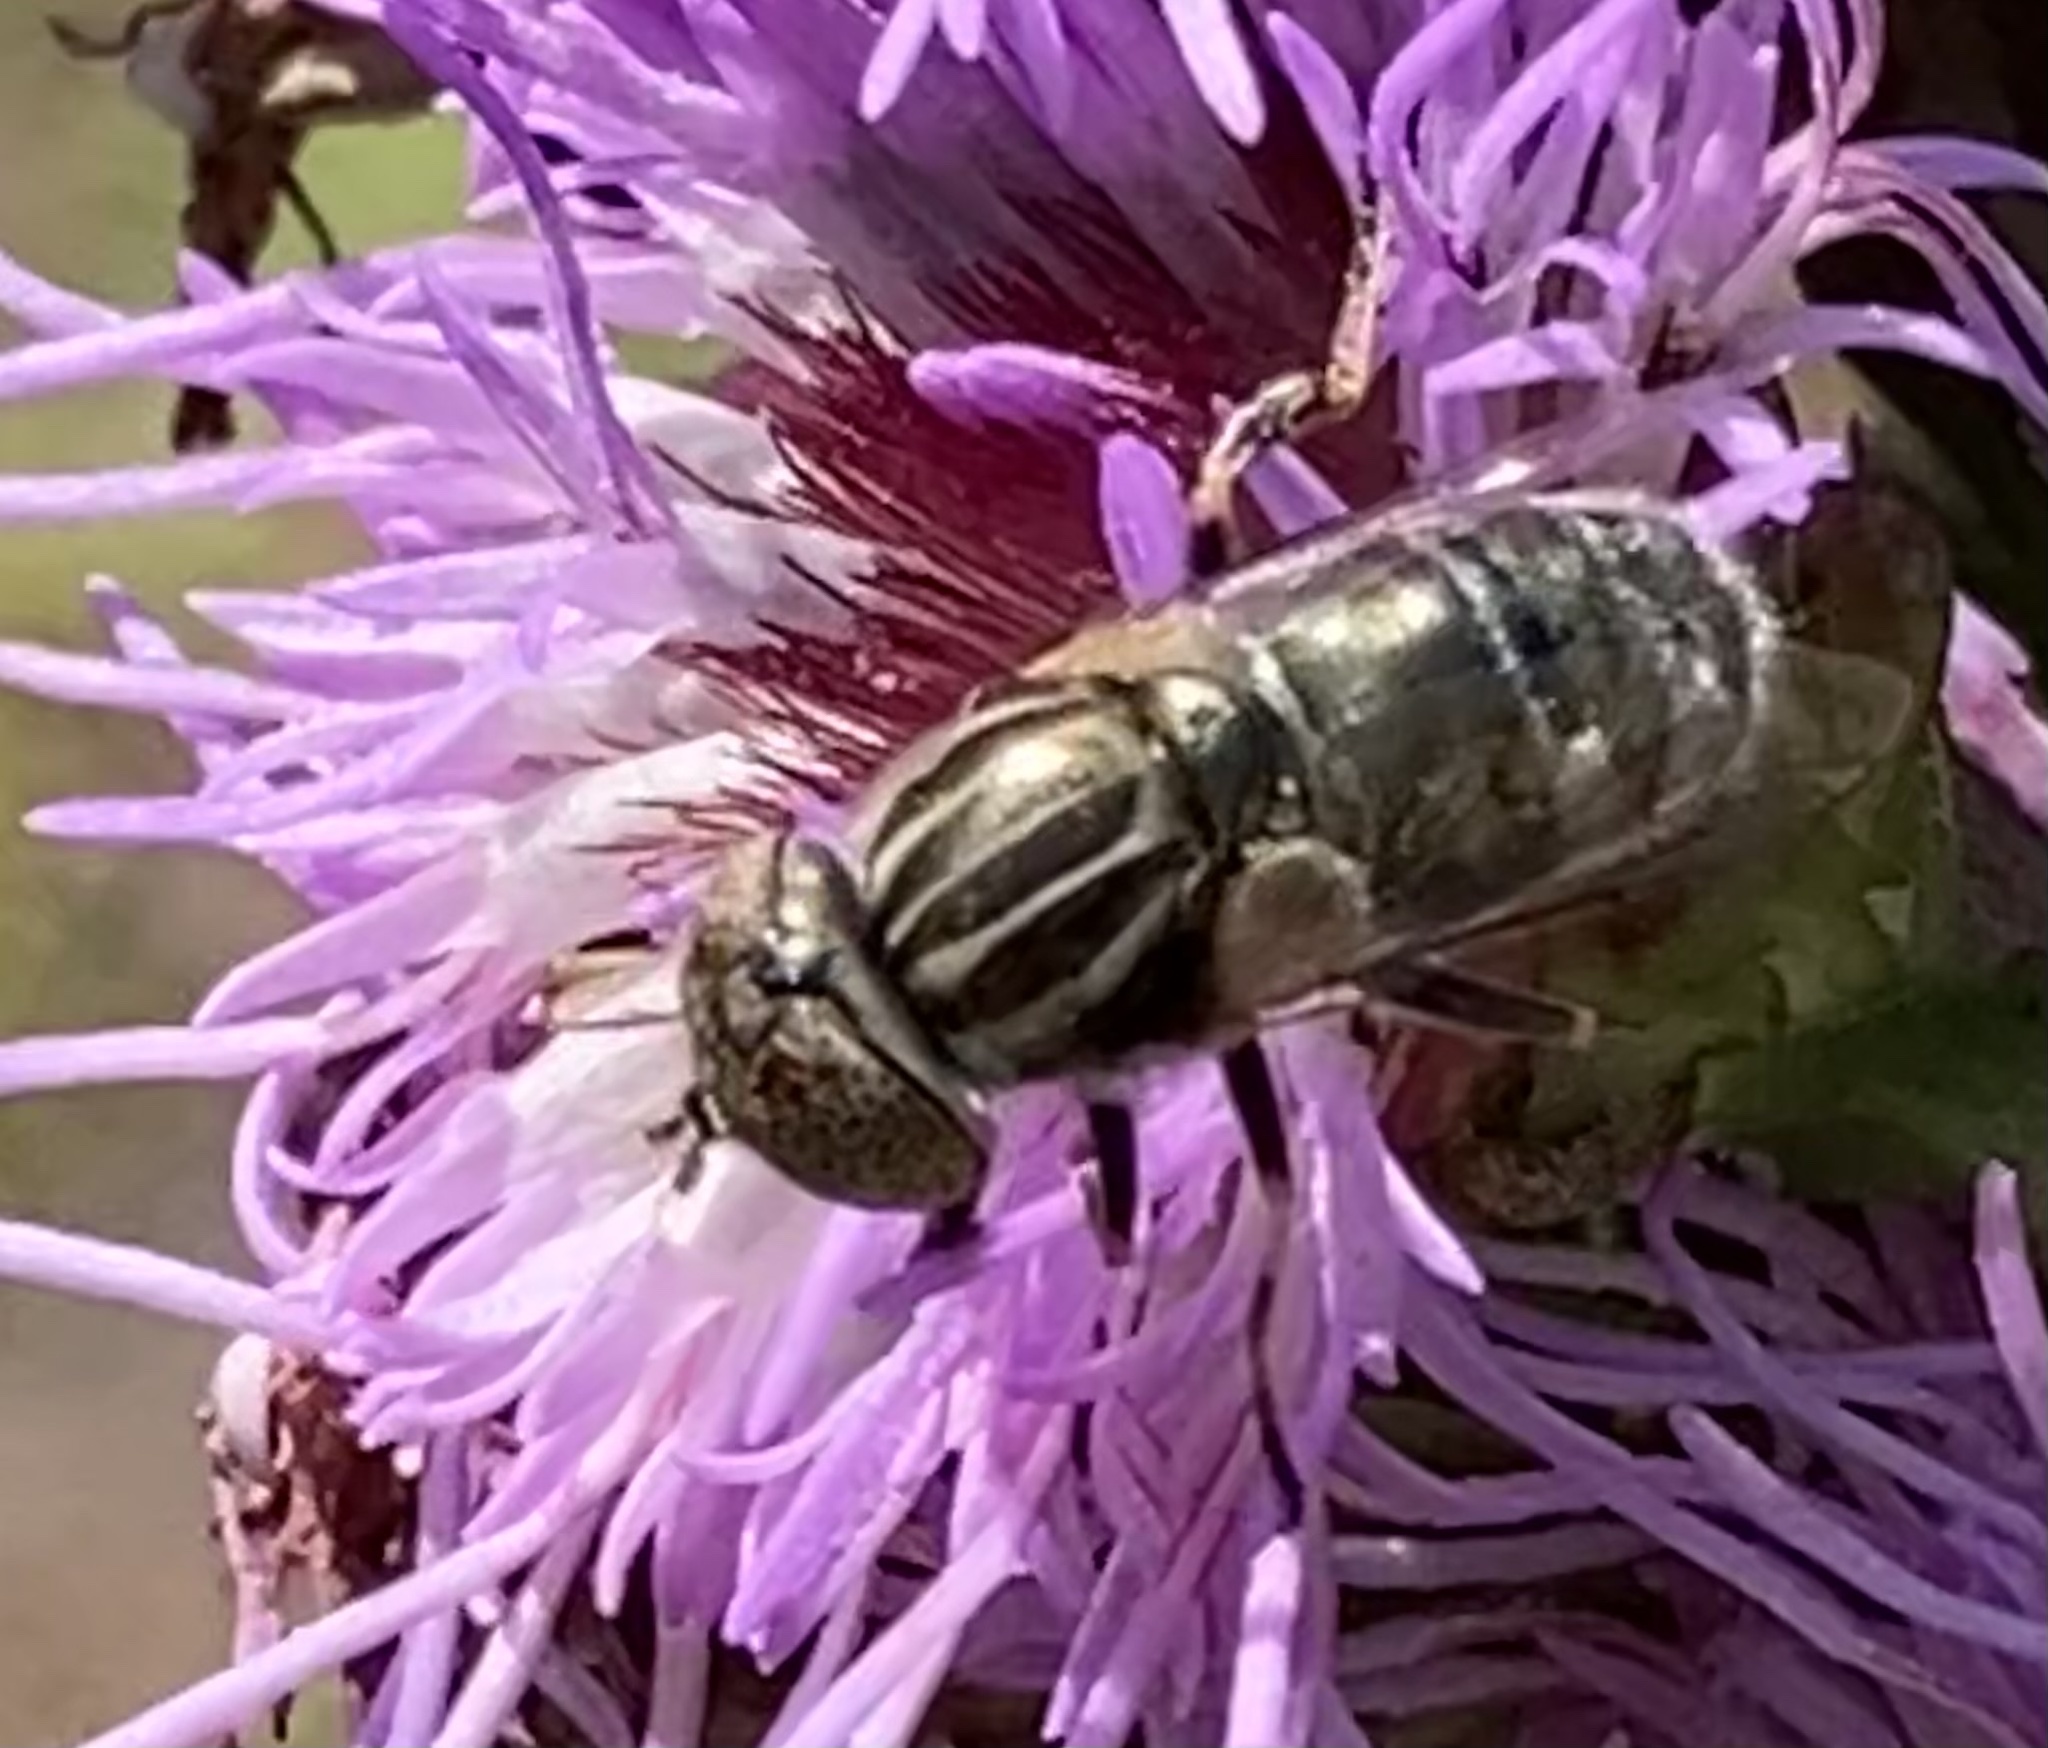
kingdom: Animalia
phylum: Arthropoda
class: Insecta
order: Diptera
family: Syrphidae
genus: Eristalinus
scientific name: Eristalinus aeneus
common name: Syrphid fly
